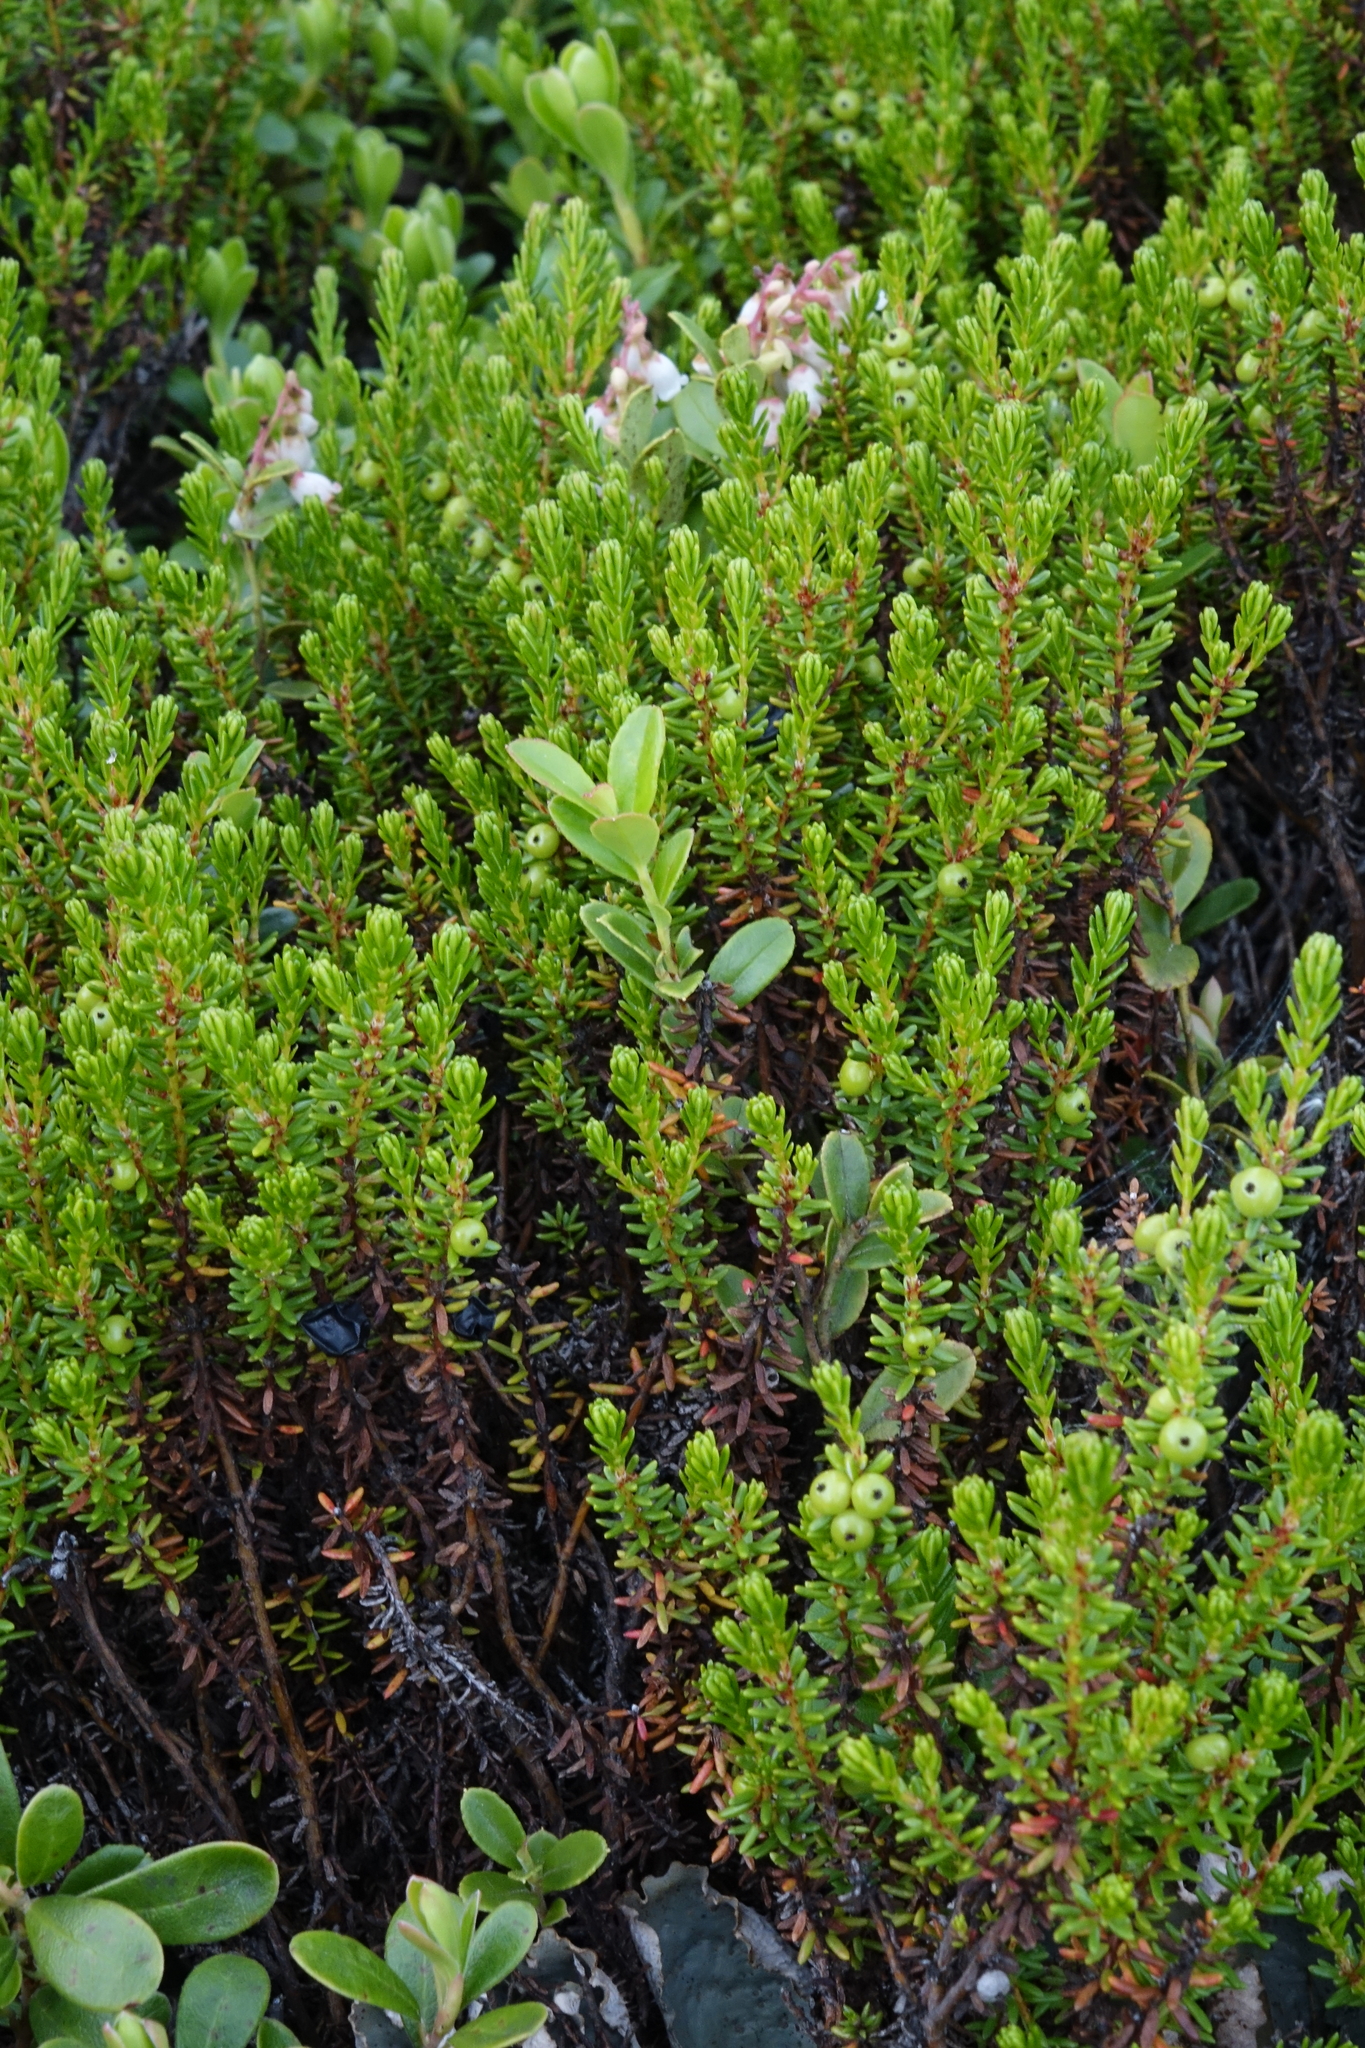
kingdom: Plantae
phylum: Tracheophyta
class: Magnoliopsida
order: Ericales
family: Ericaceae
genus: Empetrum
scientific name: Empetrum nigrum
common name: Black crowberry
